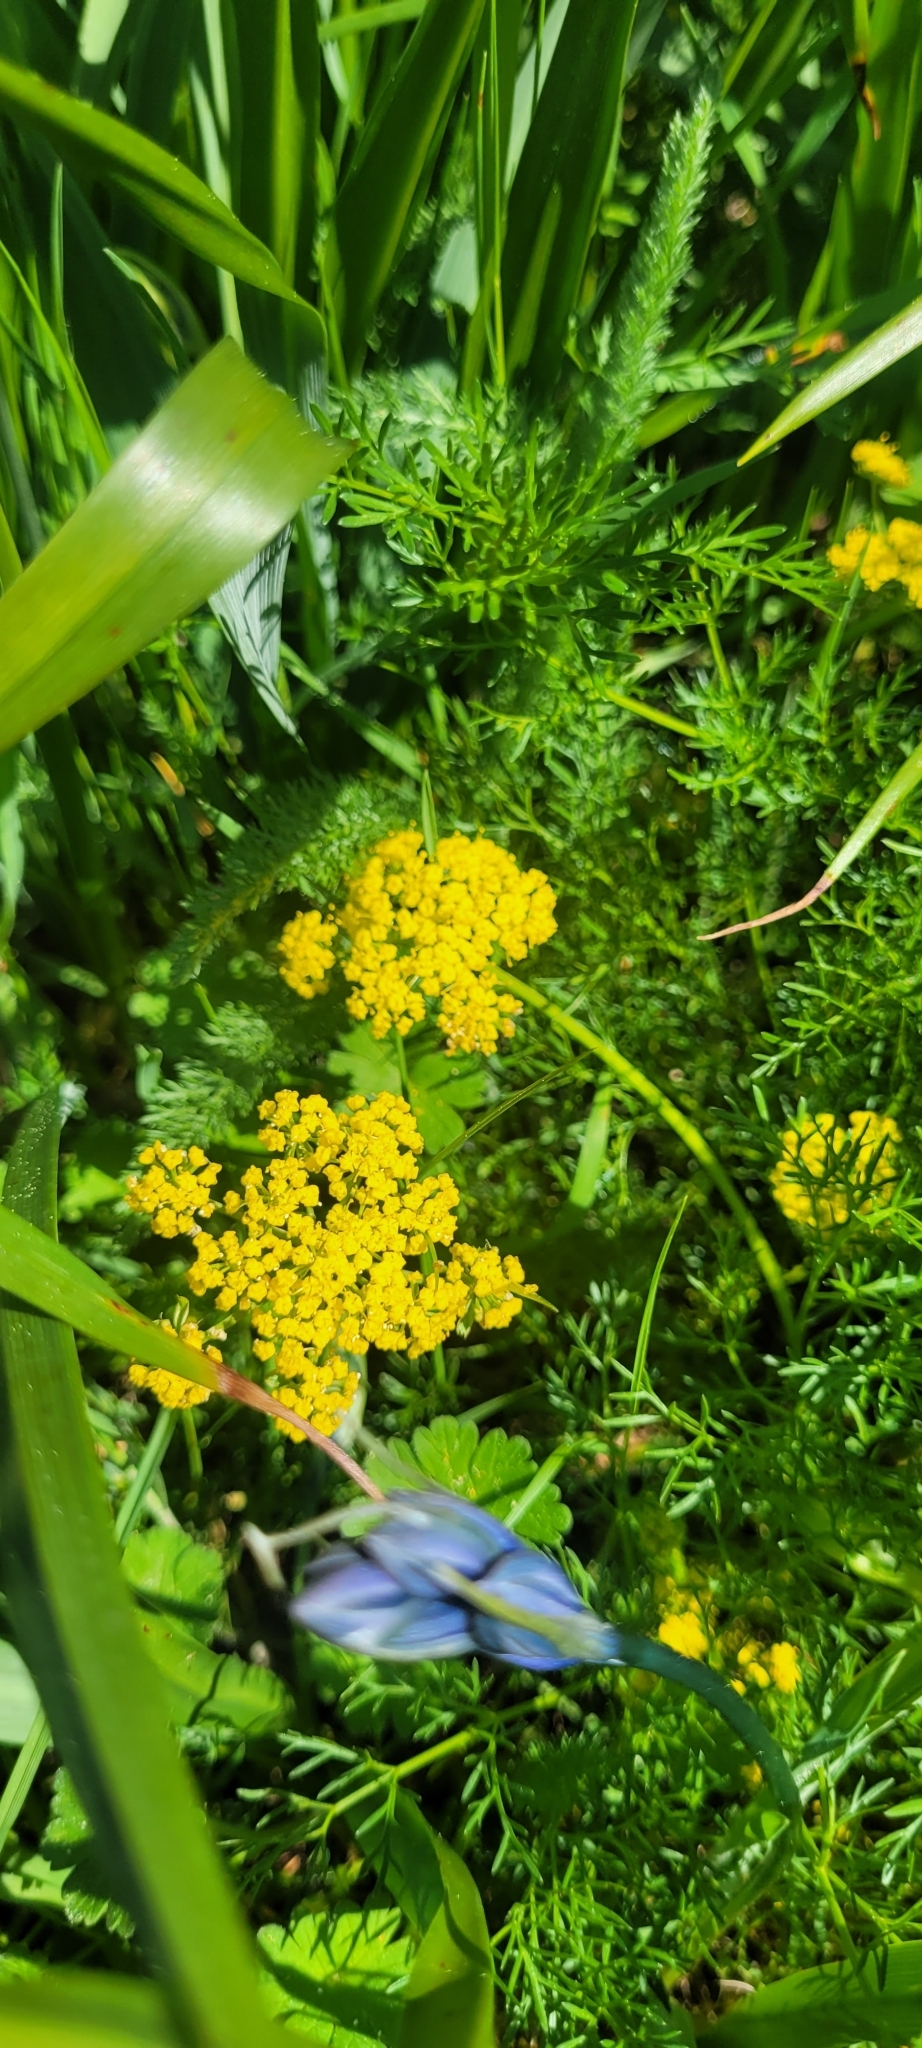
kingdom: Plantae
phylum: Tracheophyta
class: Magnoliopsida
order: Apiales
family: Apiaceae
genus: Lomatium
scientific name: Lomatium utriculatum
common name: Fine-leaf desert-parsley
